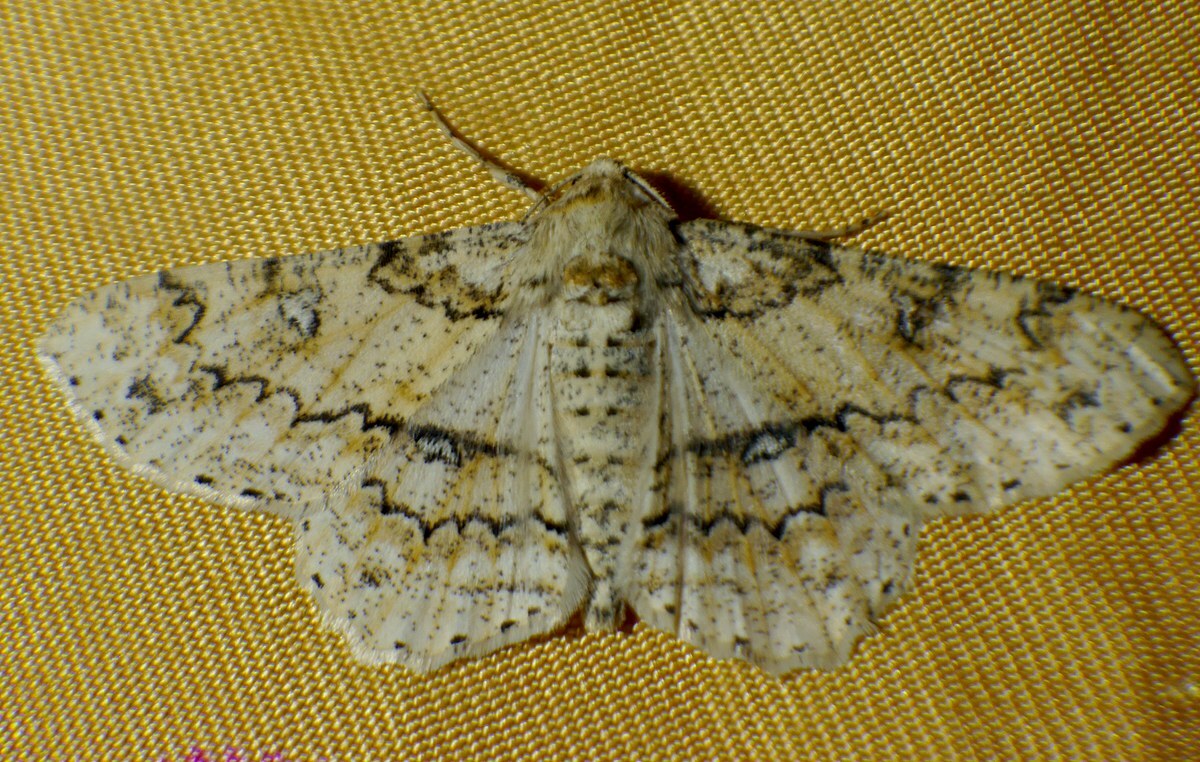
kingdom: Animalia
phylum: Arthropoda
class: Insecta
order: Lepidoptera
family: Geometridae
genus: Ascotis
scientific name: Ascotis selenaria
